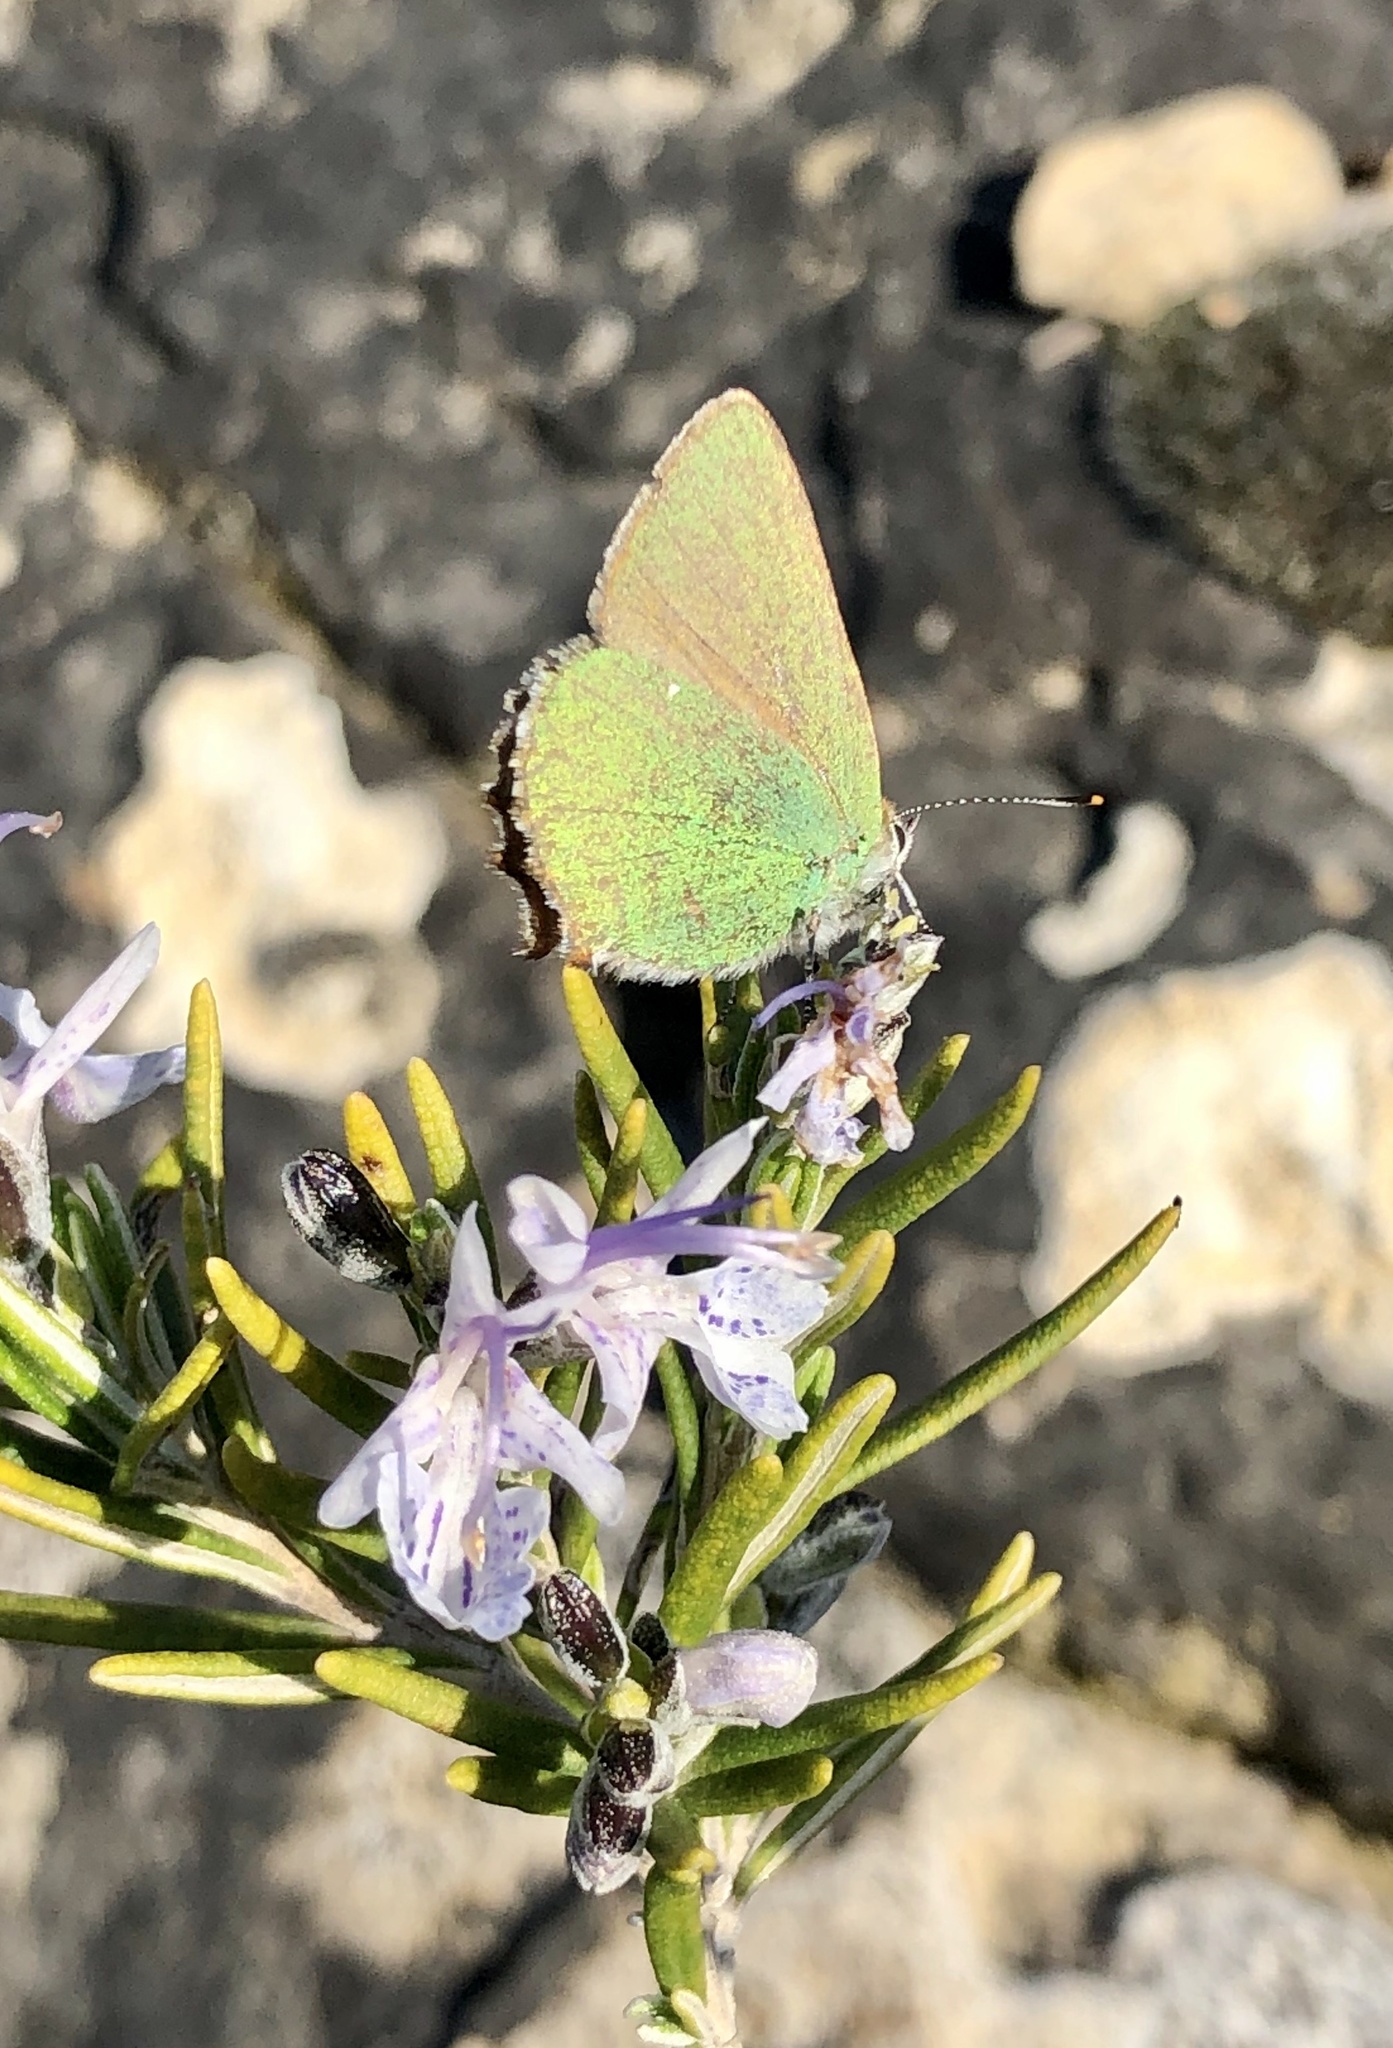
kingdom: Animalia
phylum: Arthropoda
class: Insecta
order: Lepidoptera
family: Lycaenidae
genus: Callophrys
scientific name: Callophrys rubi
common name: Green hairstreak
